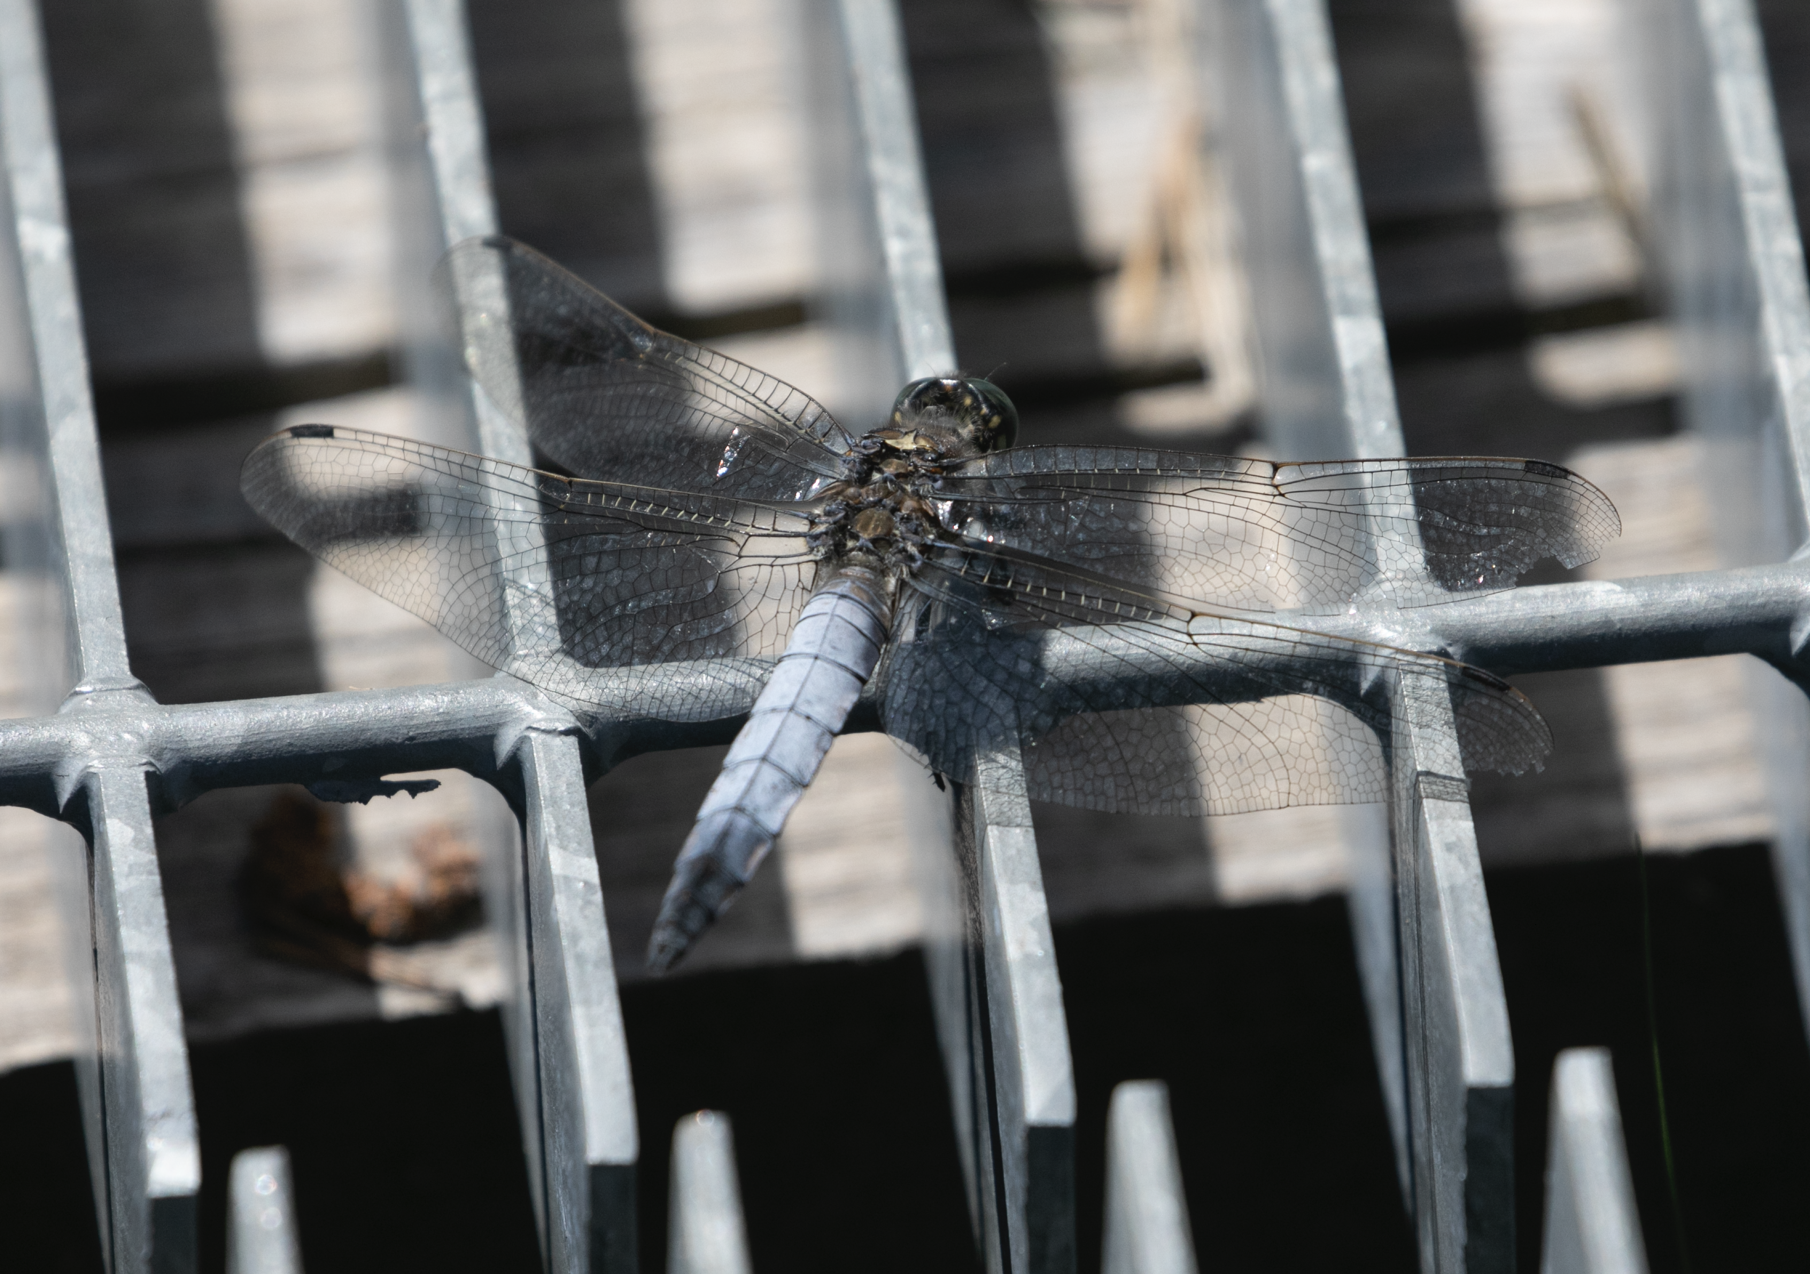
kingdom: Animalia
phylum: Arthropoda
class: Insecta
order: Odonata
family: Libellulidae
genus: Orthetrum
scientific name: Orthetrum cancellatum
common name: Black-tailed skimmer
